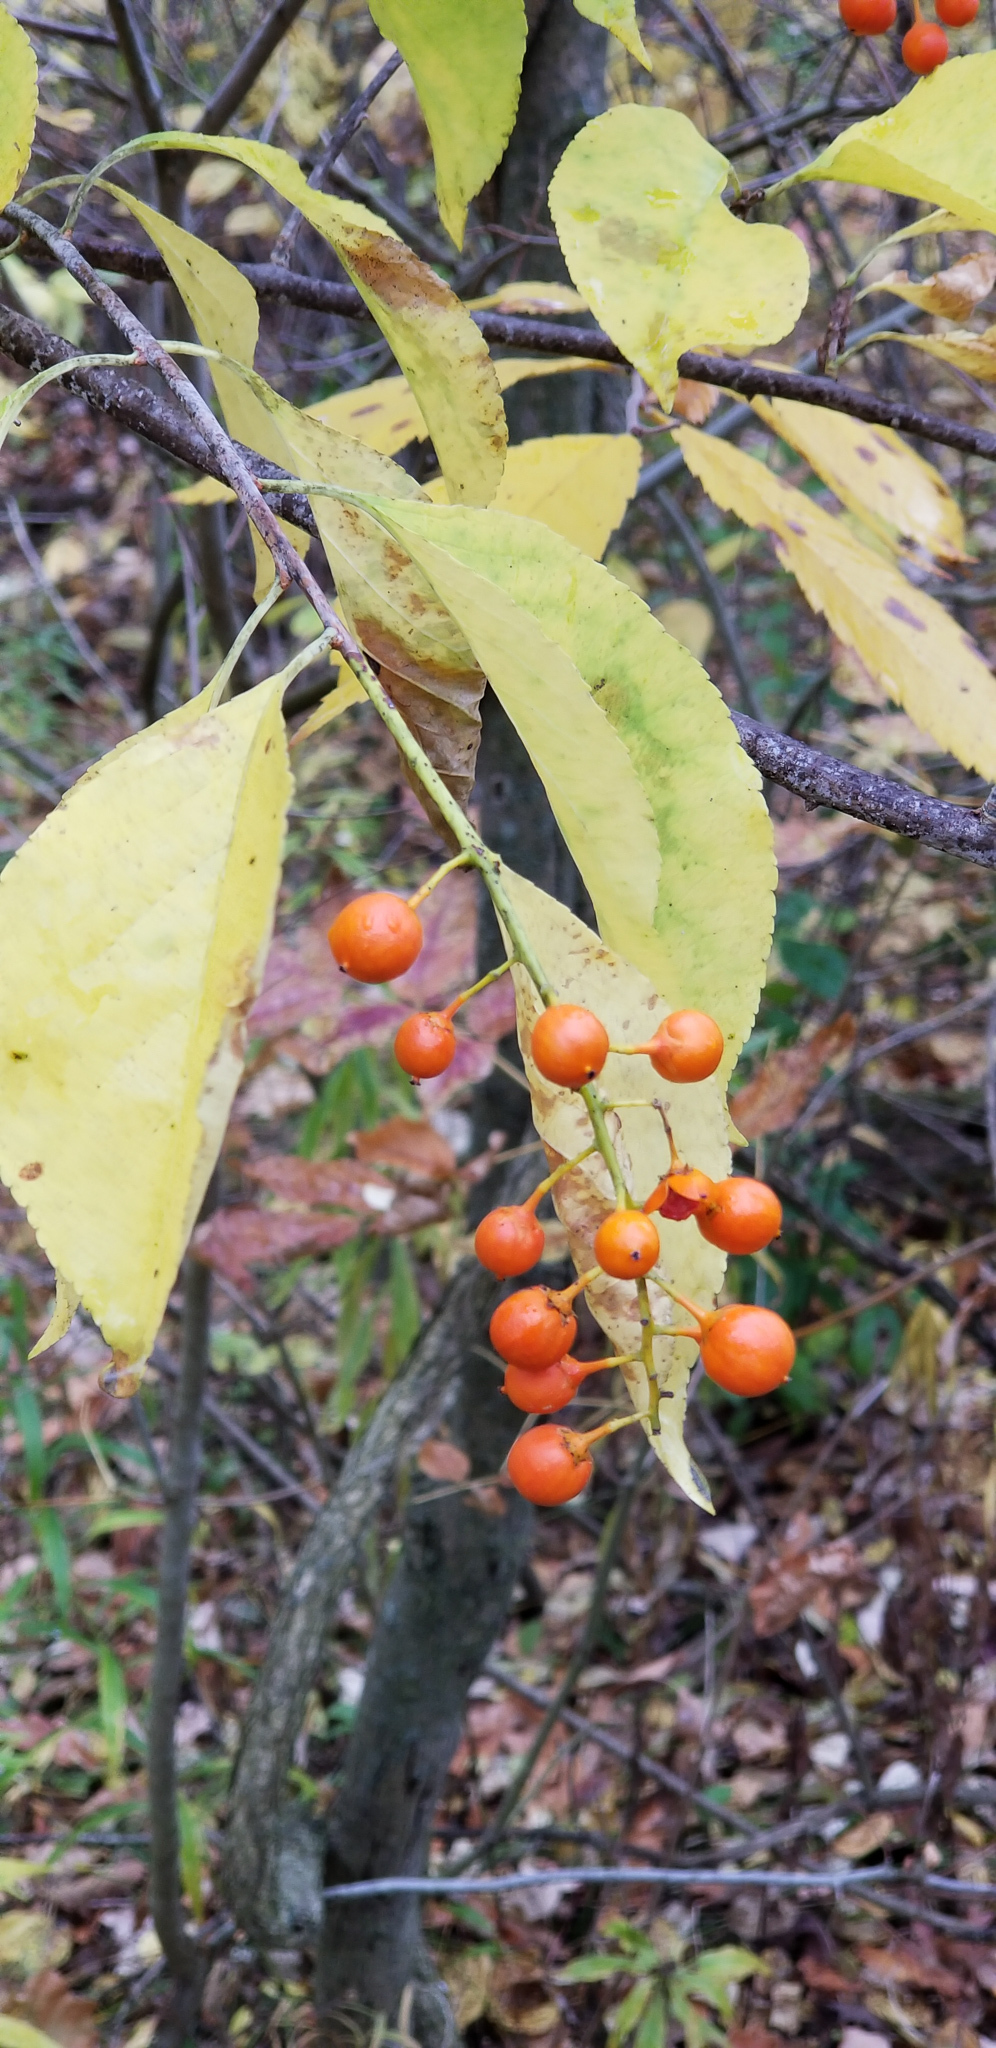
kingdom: Plantae
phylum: Tracheophyta
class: Magnoliopsida
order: Celastrales
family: Celastraceae
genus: Celastrus
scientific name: Celastrus scandens
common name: American bittersweet
